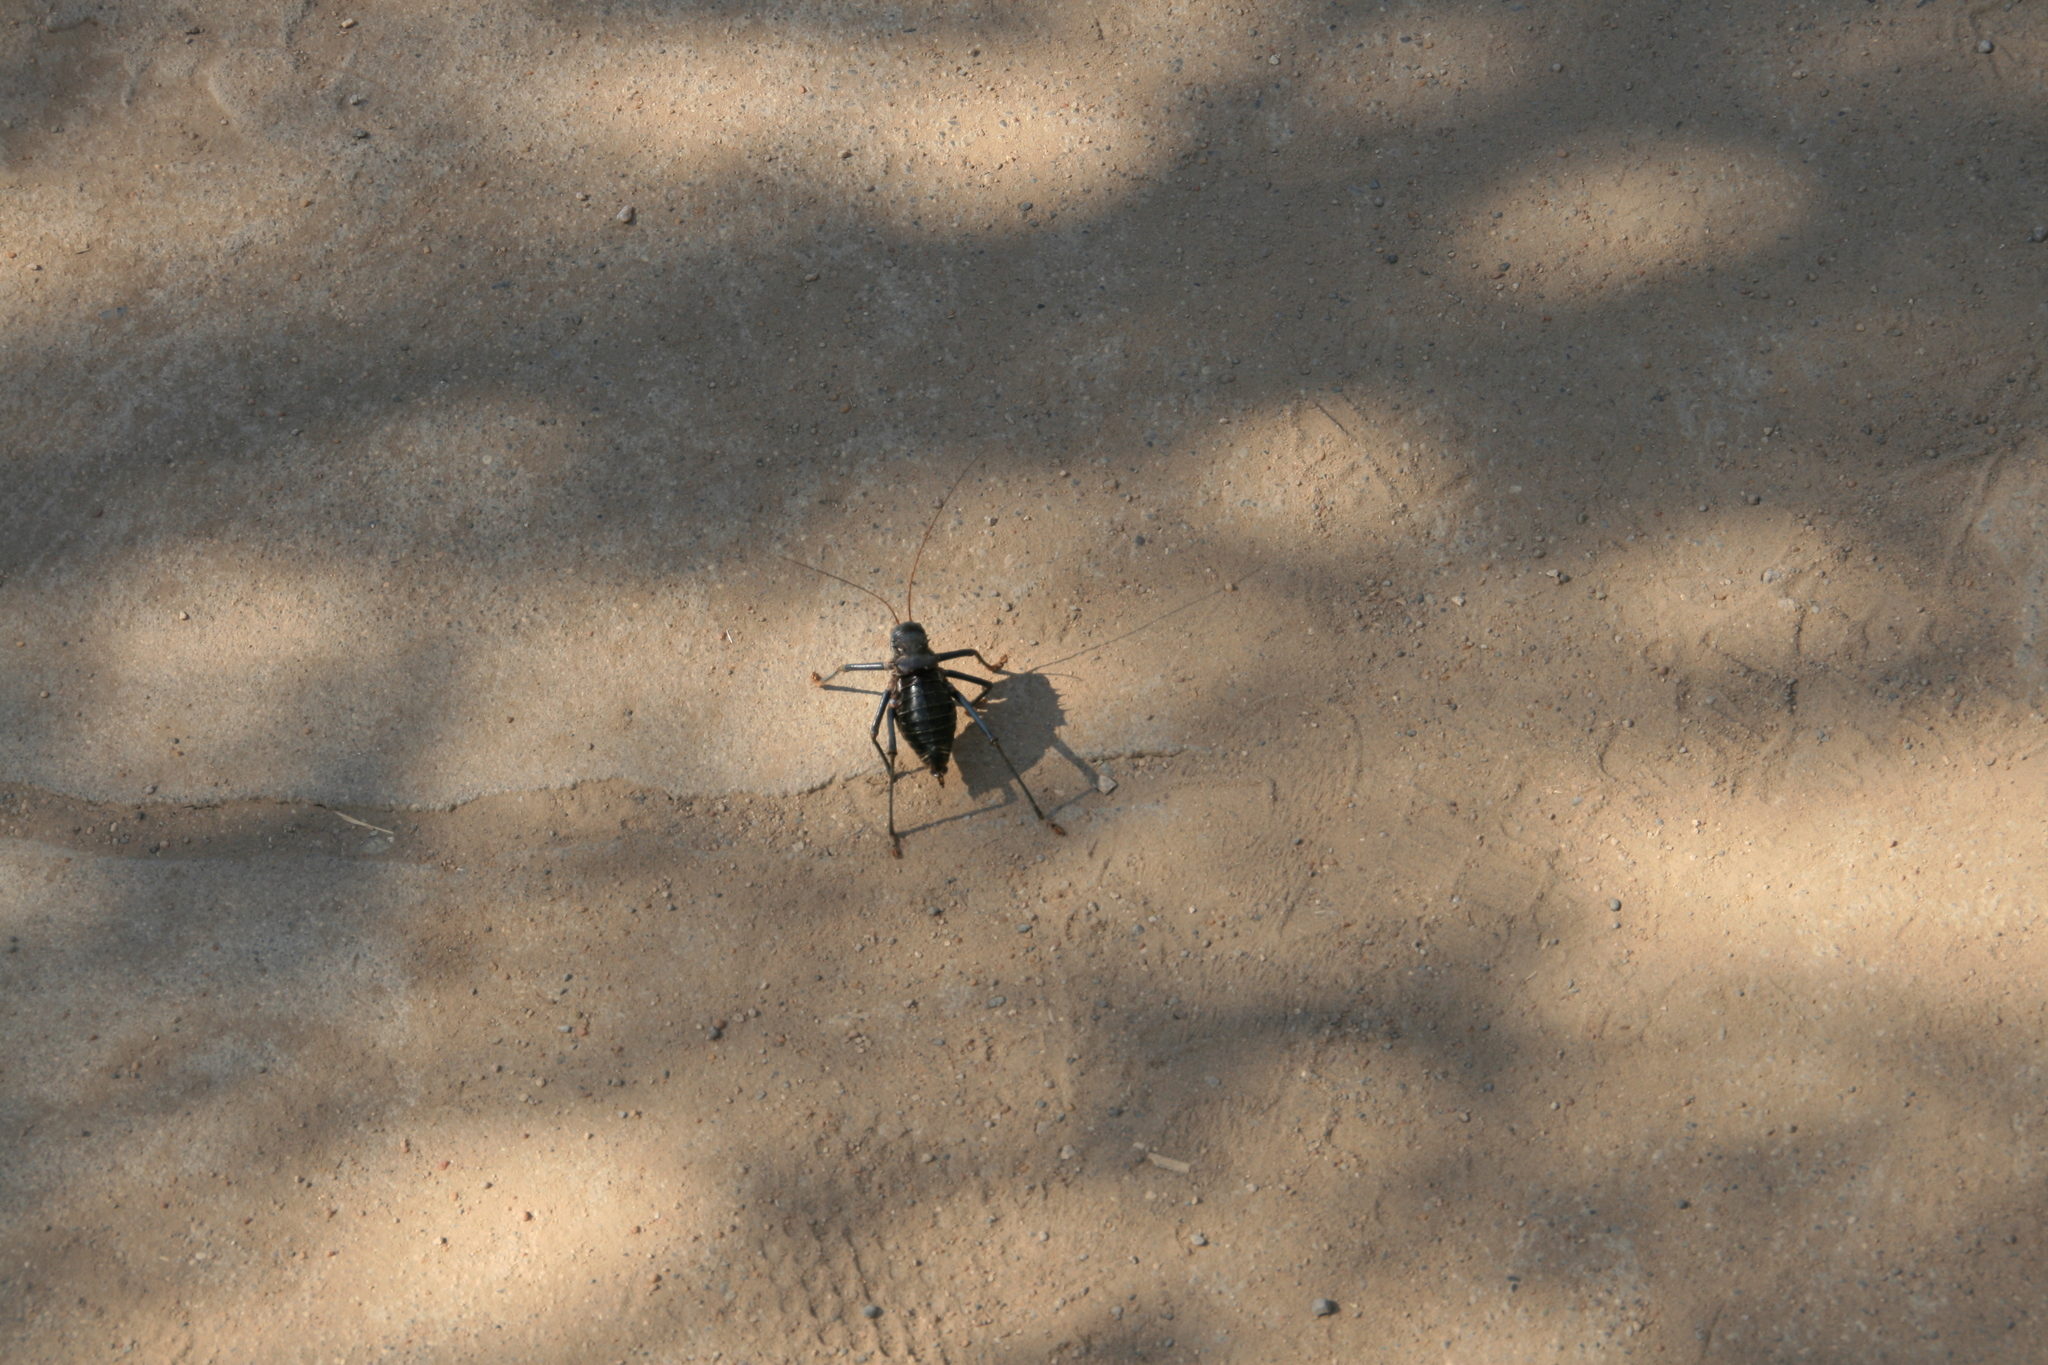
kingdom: Animalia
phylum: Arthropoda
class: Insecta
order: Orthoptera
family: Tettigoniidae
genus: Acanthoplus
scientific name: Acanthoplus discoidalis
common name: Armoured katydid
